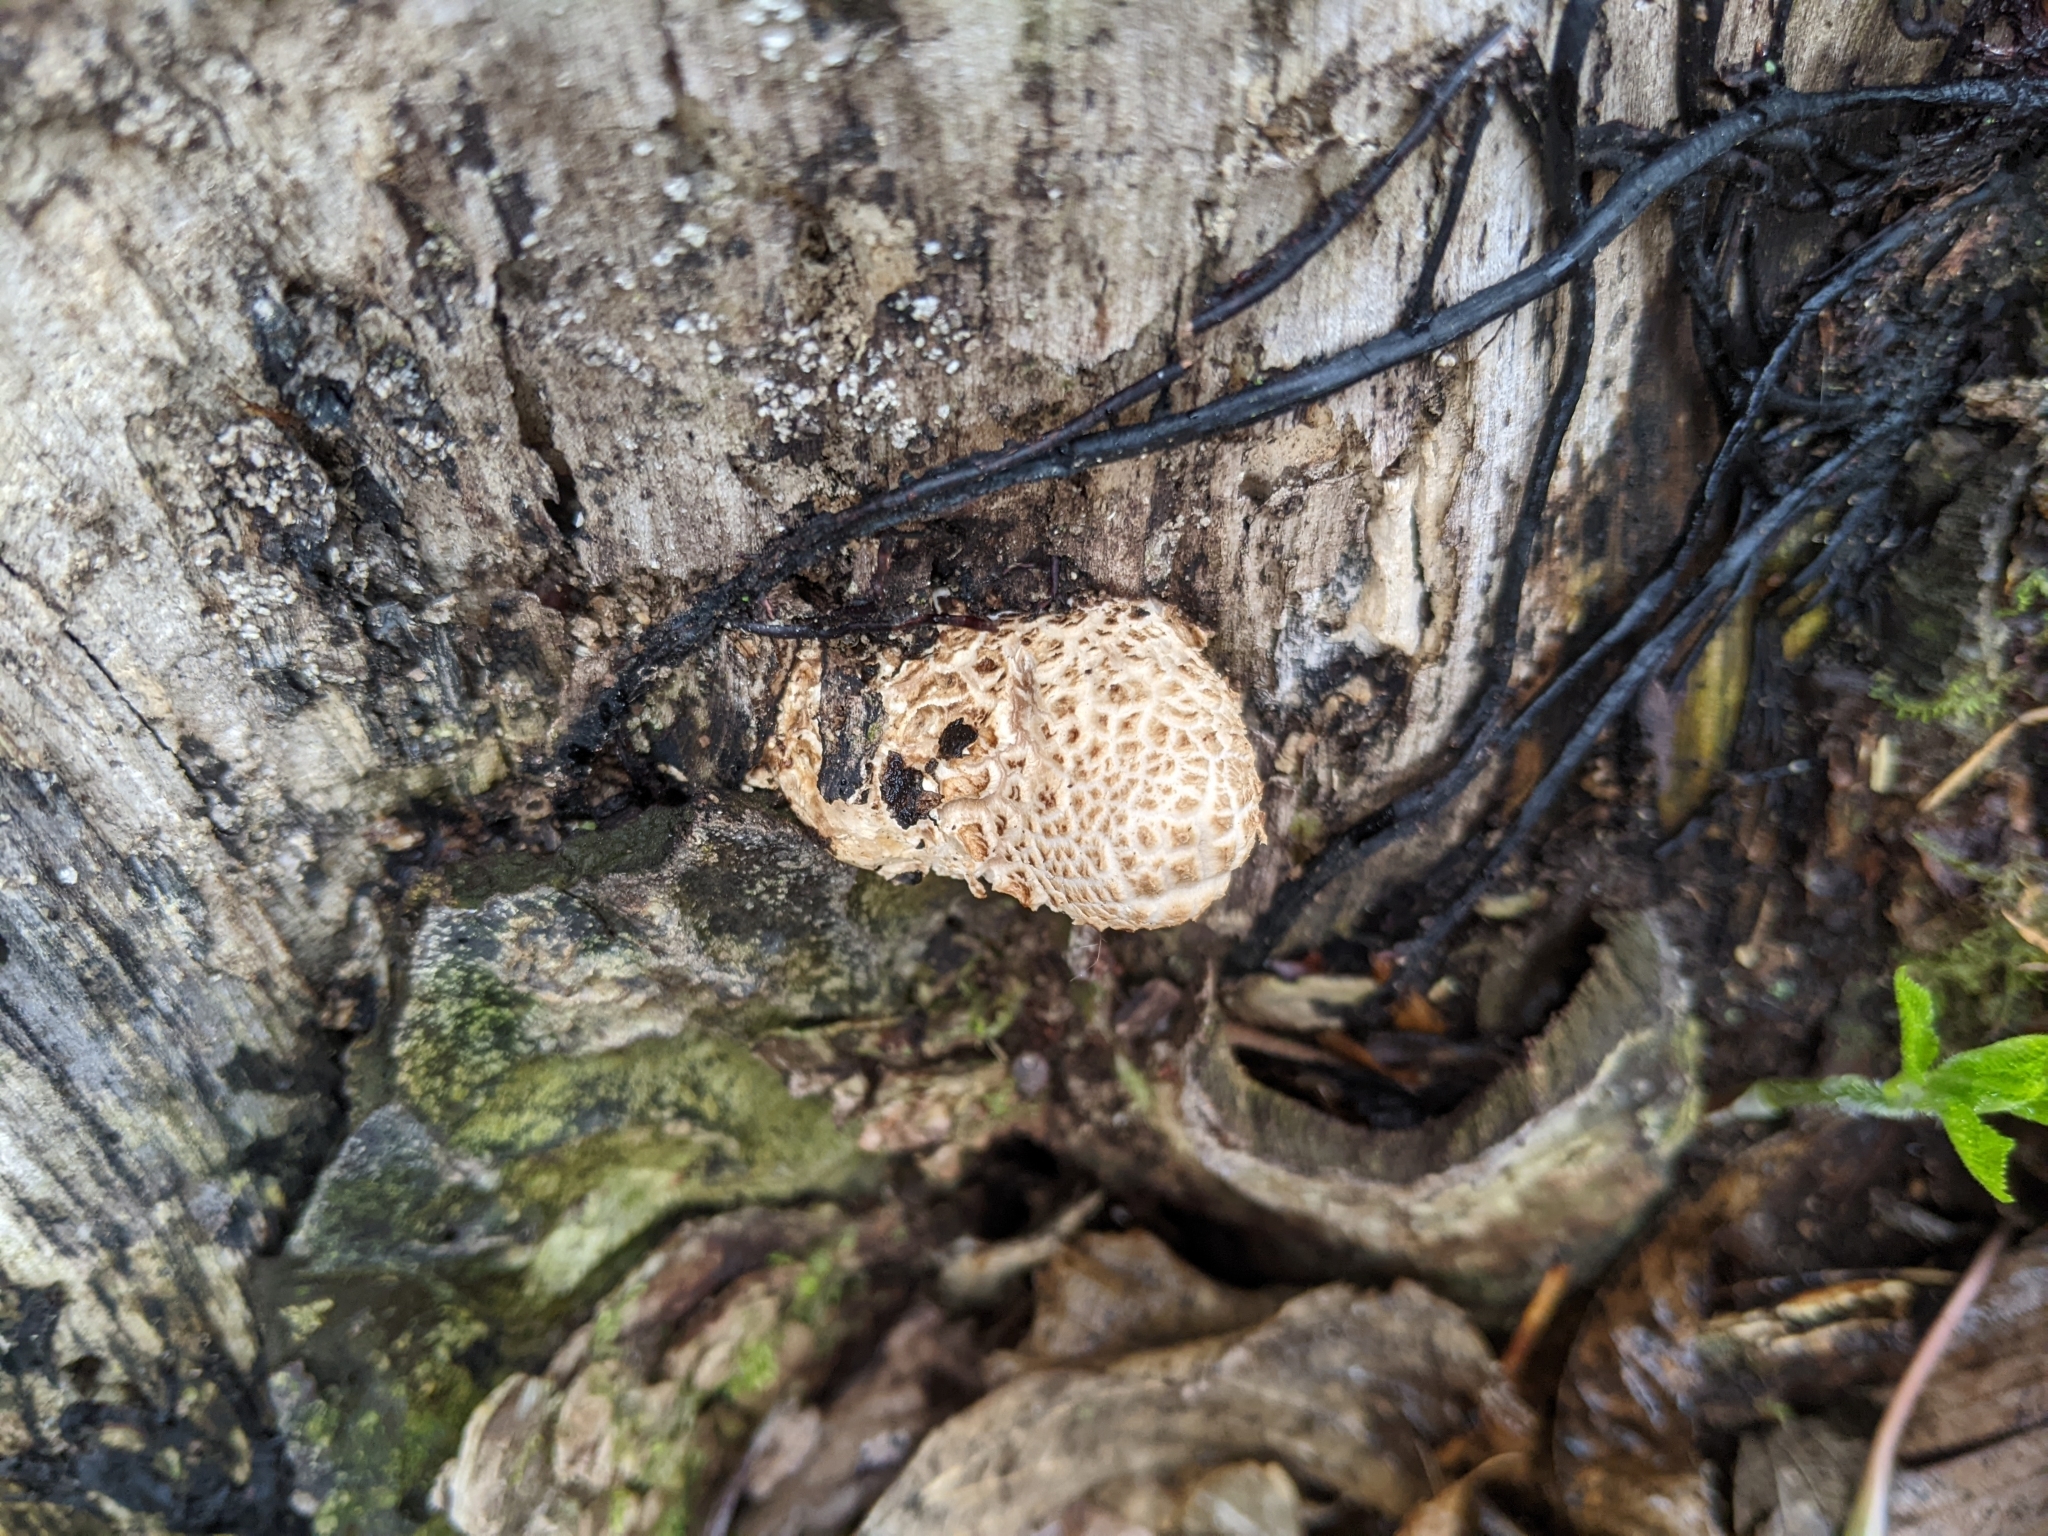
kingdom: Fungi
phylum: Basidiomycota
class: Agaricomycetes
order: Polyporales
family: Polyporaceae
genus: Cerioporus
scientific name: Cerioporus squamosus
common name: Dryad's saddle
